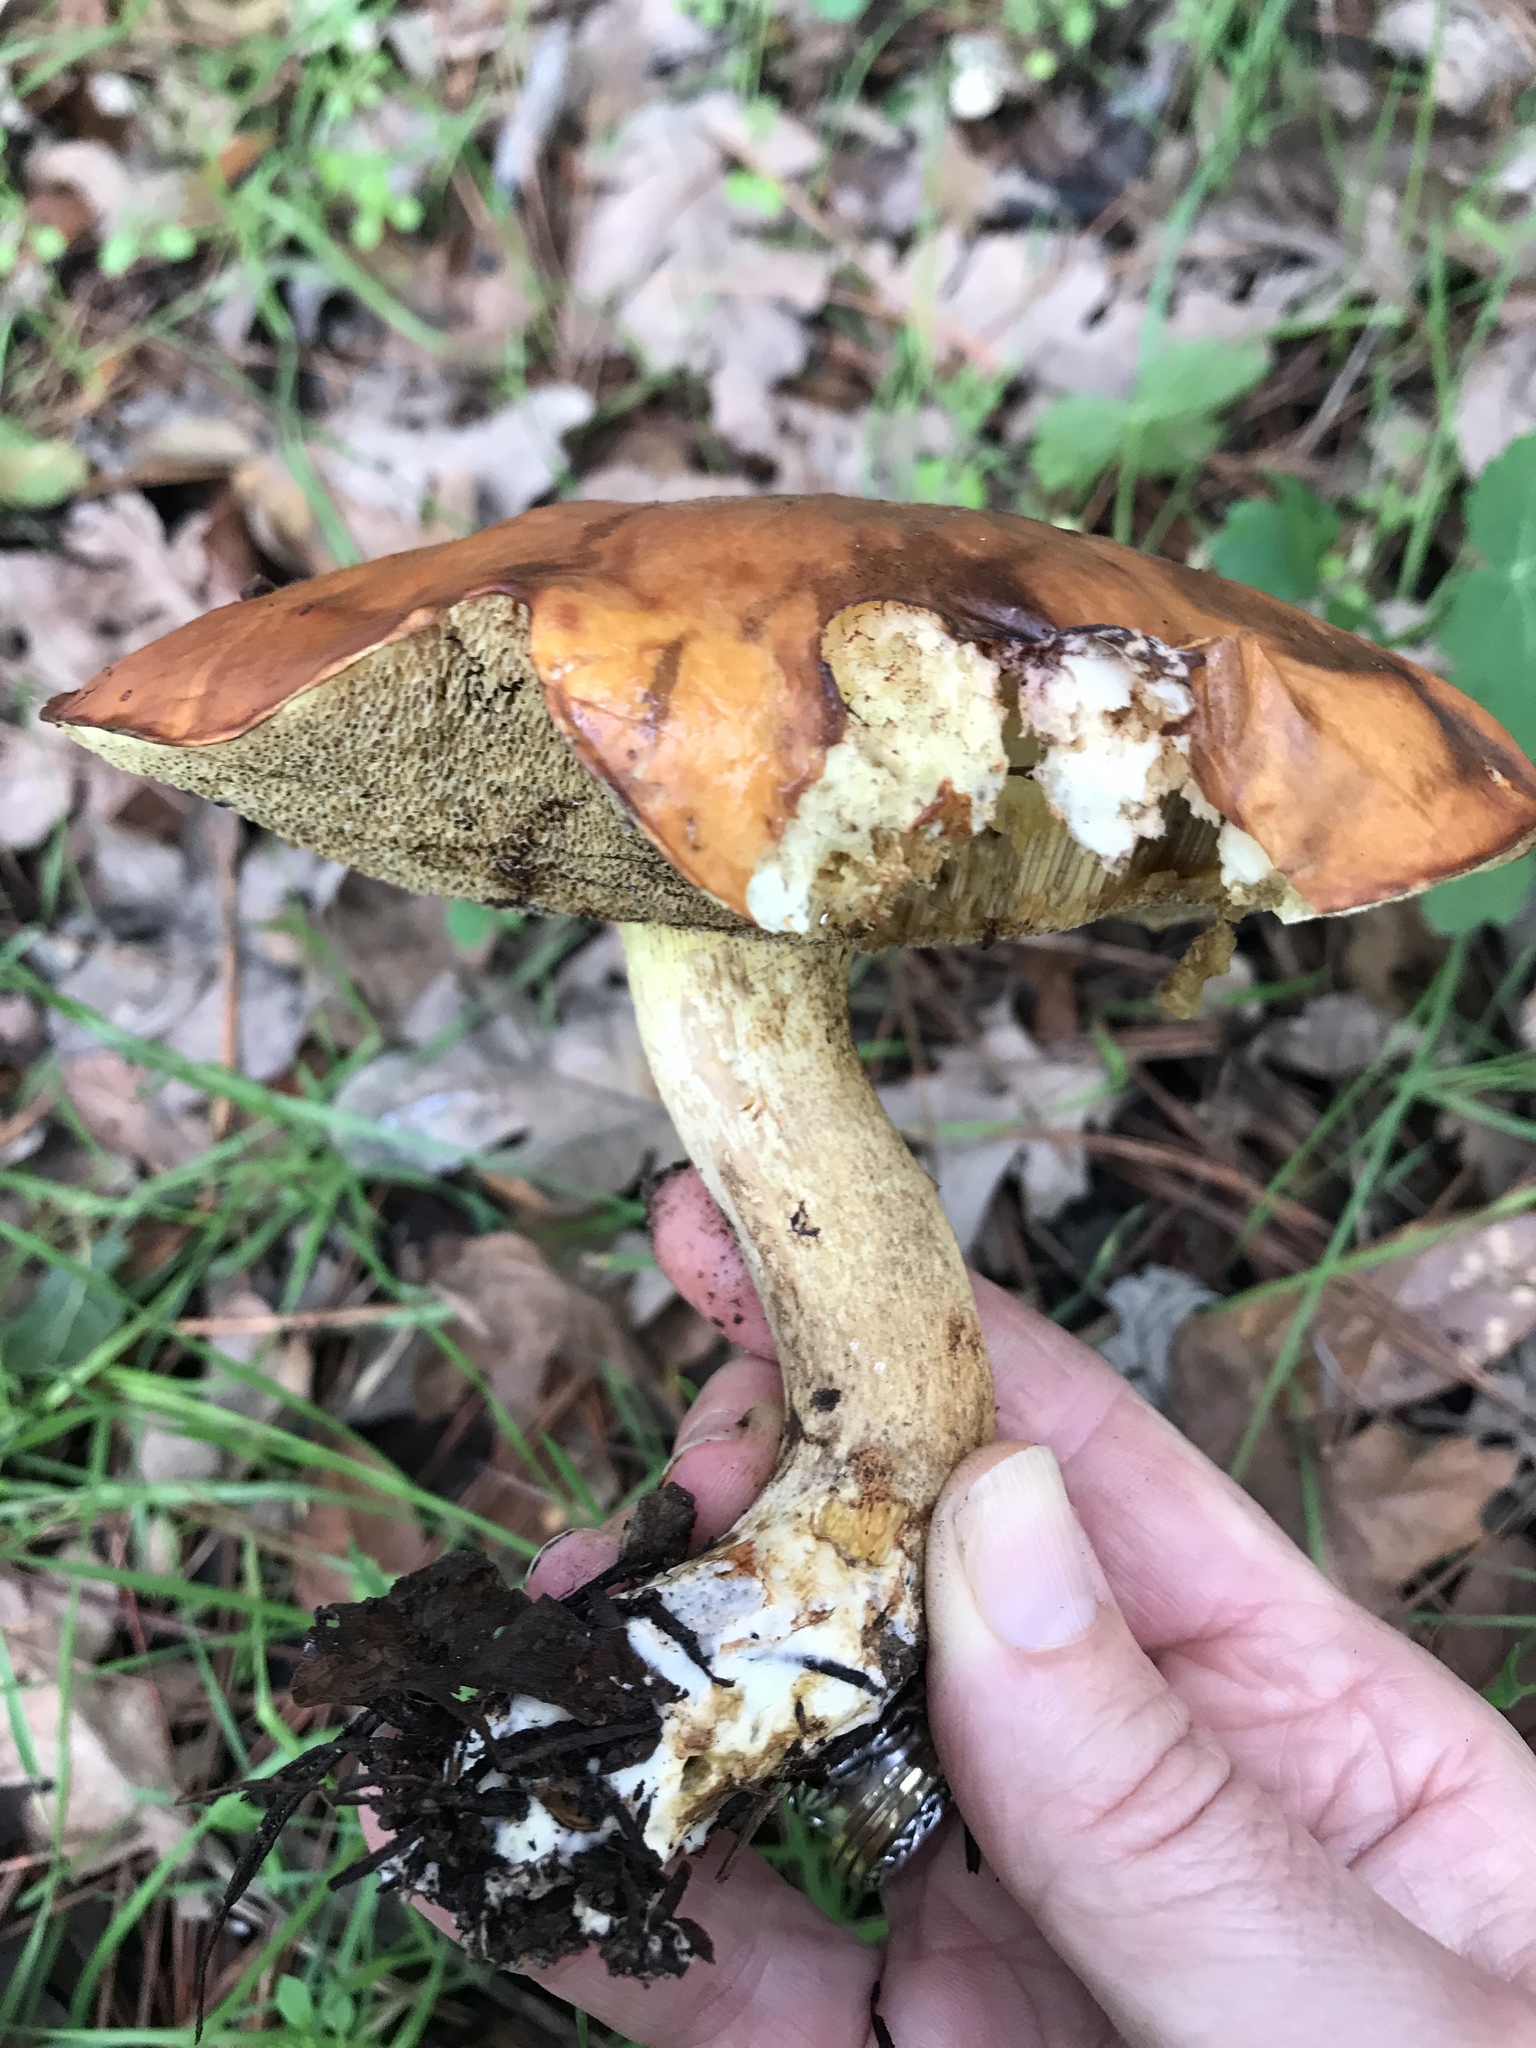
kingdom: Fungi
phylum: Basidiomycota
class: Agaricomycetes
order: Boletales
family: Suillaceae
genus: Suillus
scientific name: Suillus pungens
